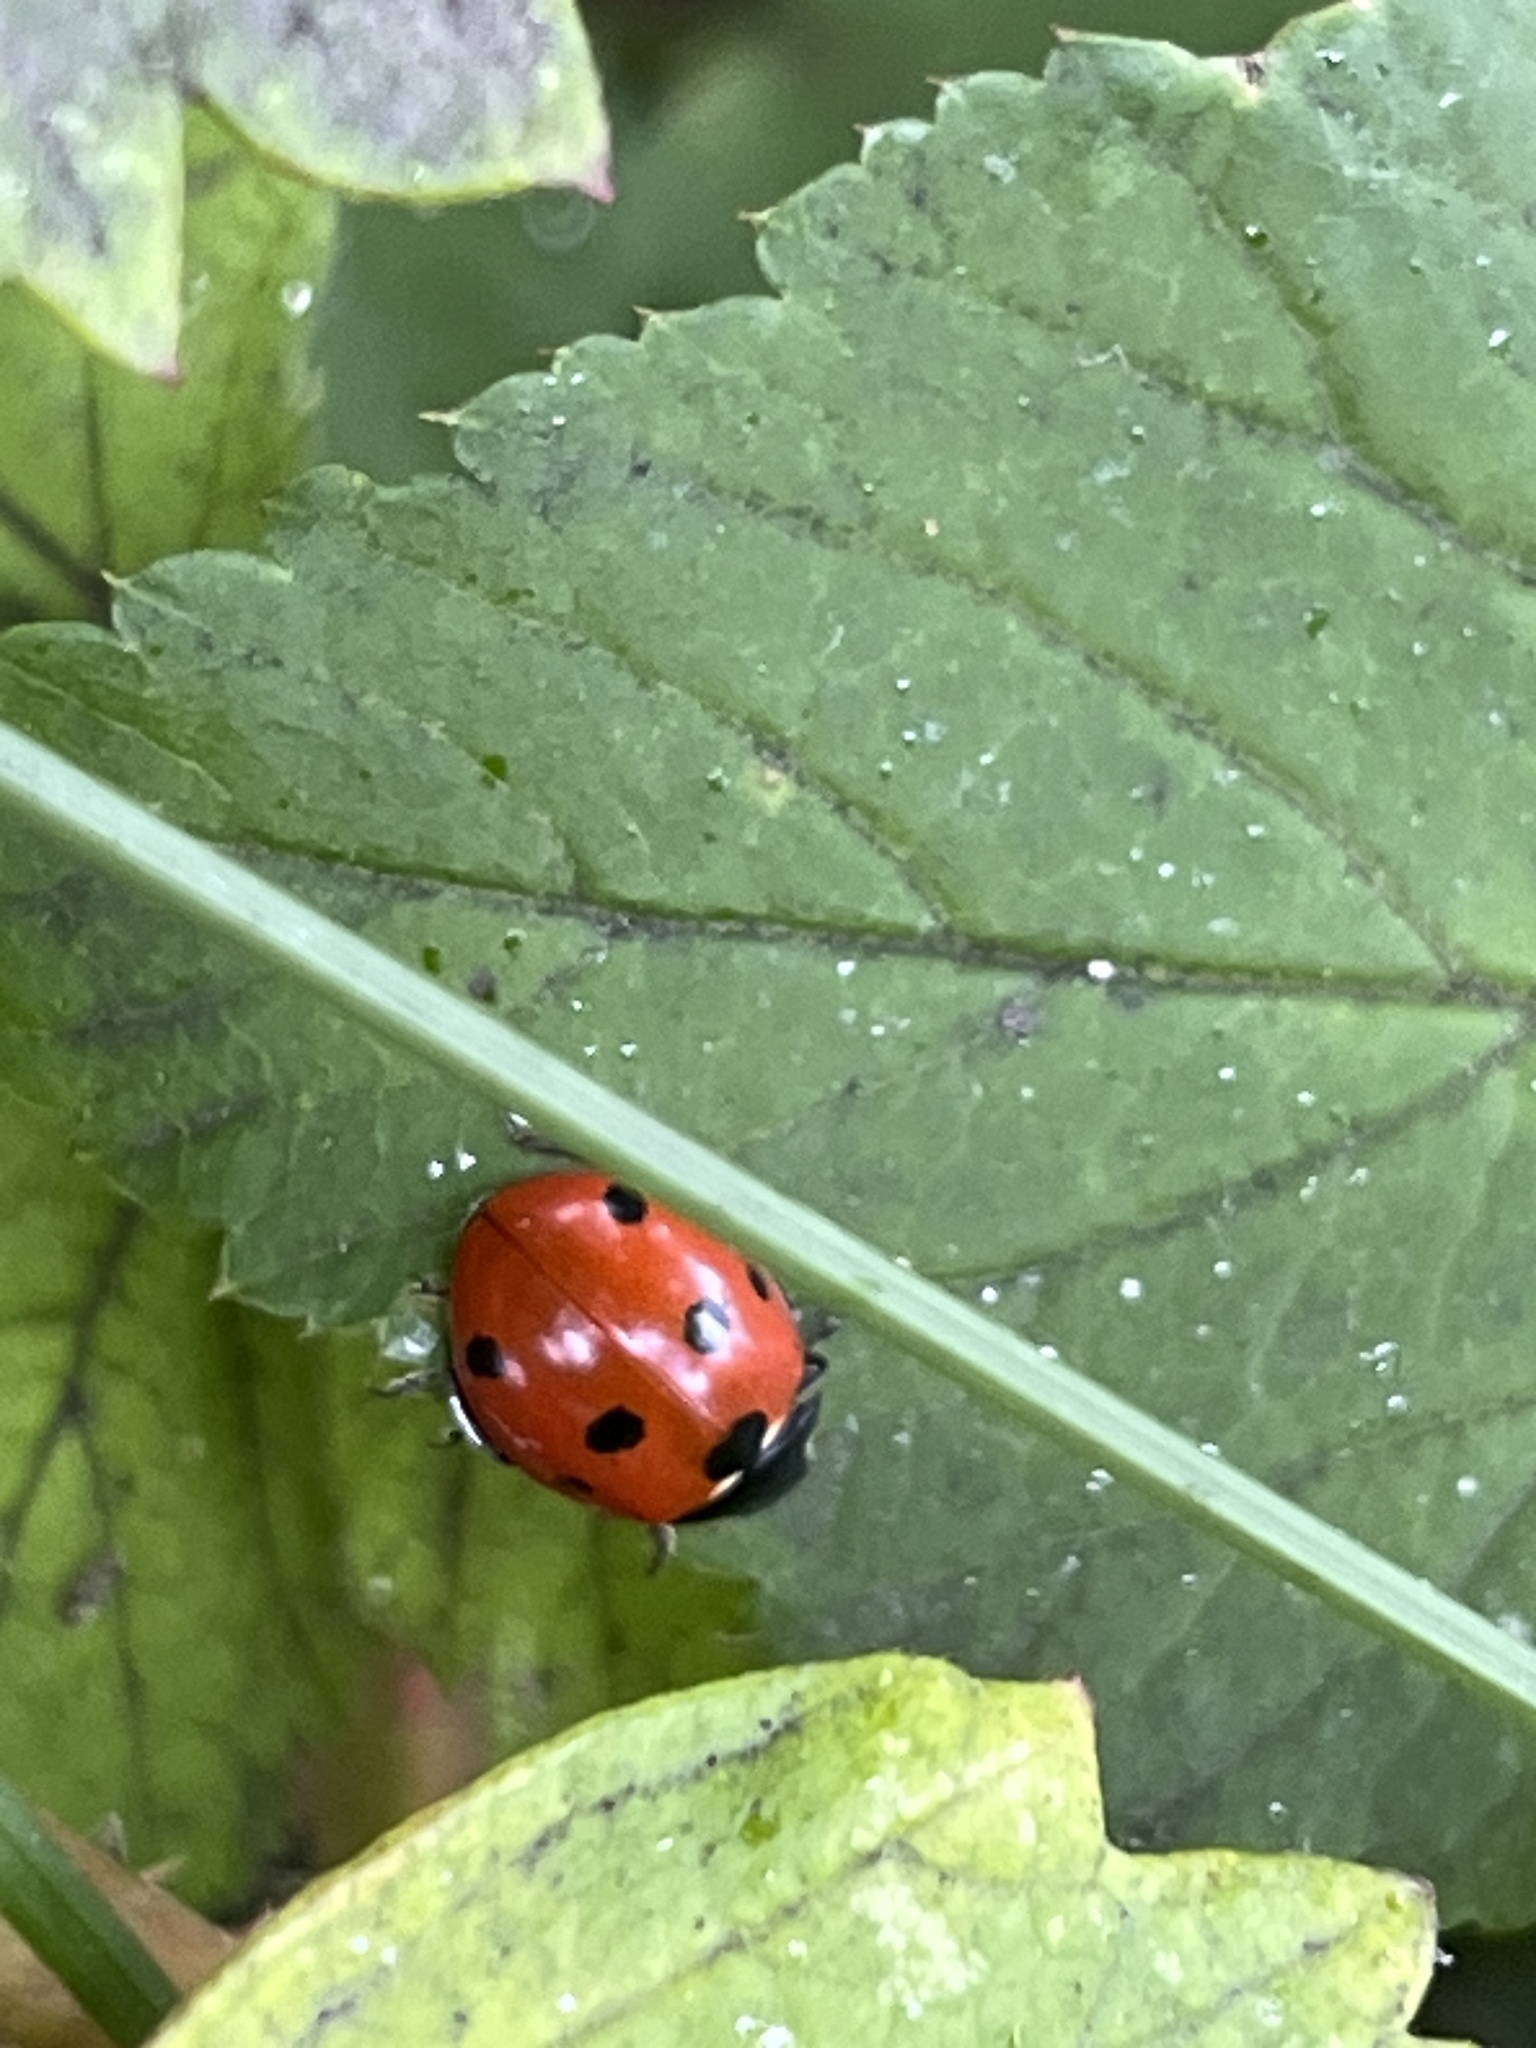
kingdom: Animalia
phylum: Arthropoda
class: Insecta
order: Coleoptera
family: Coccinellidae
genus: Coccinella
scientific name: Coccinella septempunctata
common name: Sevenspotted lady beetle
